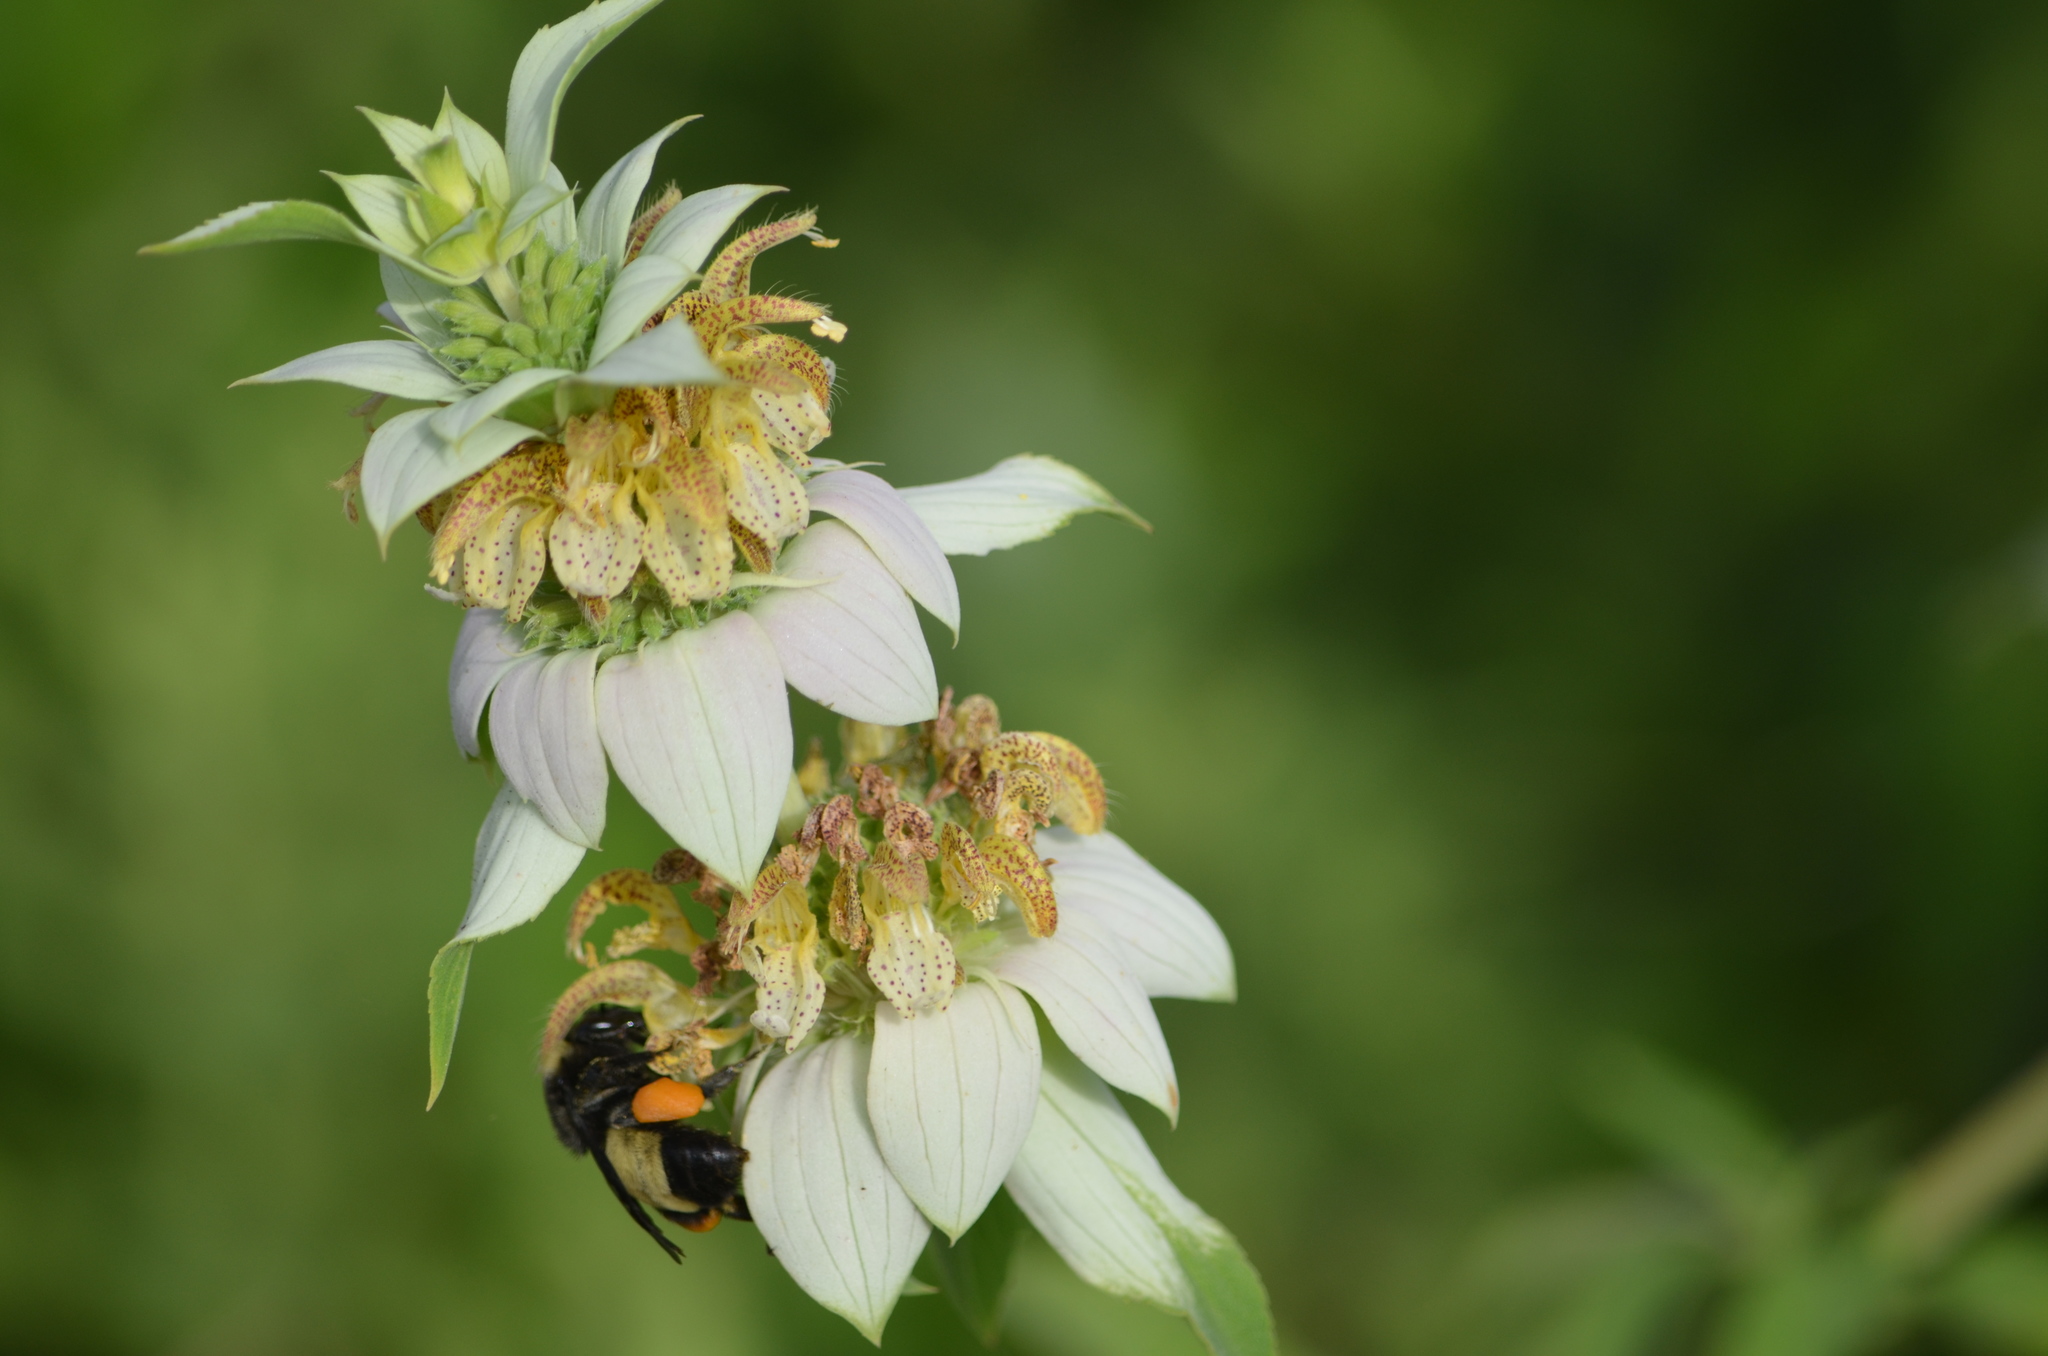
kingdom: Animalia
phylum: Arthropoda
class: Insecta
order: Hymenoptera
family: Apidae
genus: Bombus
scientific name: Bombus pensylvanicus
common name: Bumble bee
